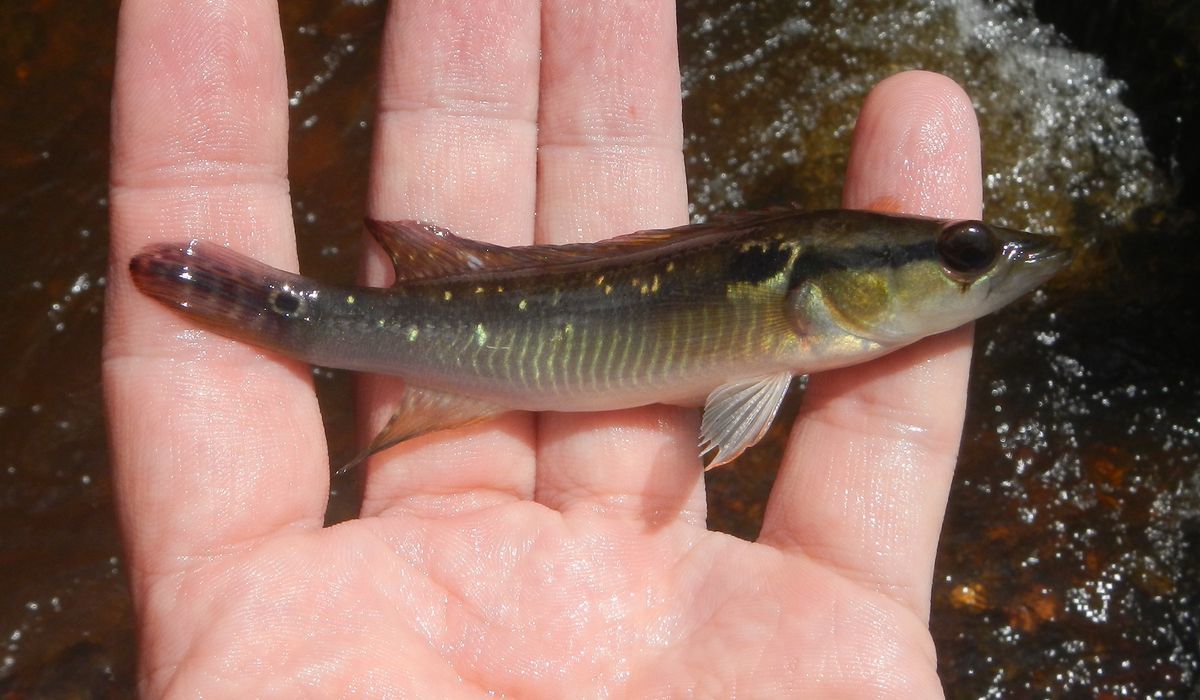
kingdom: Animalia
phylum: Chordata
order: Perciformes
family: Cichlidae
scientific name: Cichlidae
